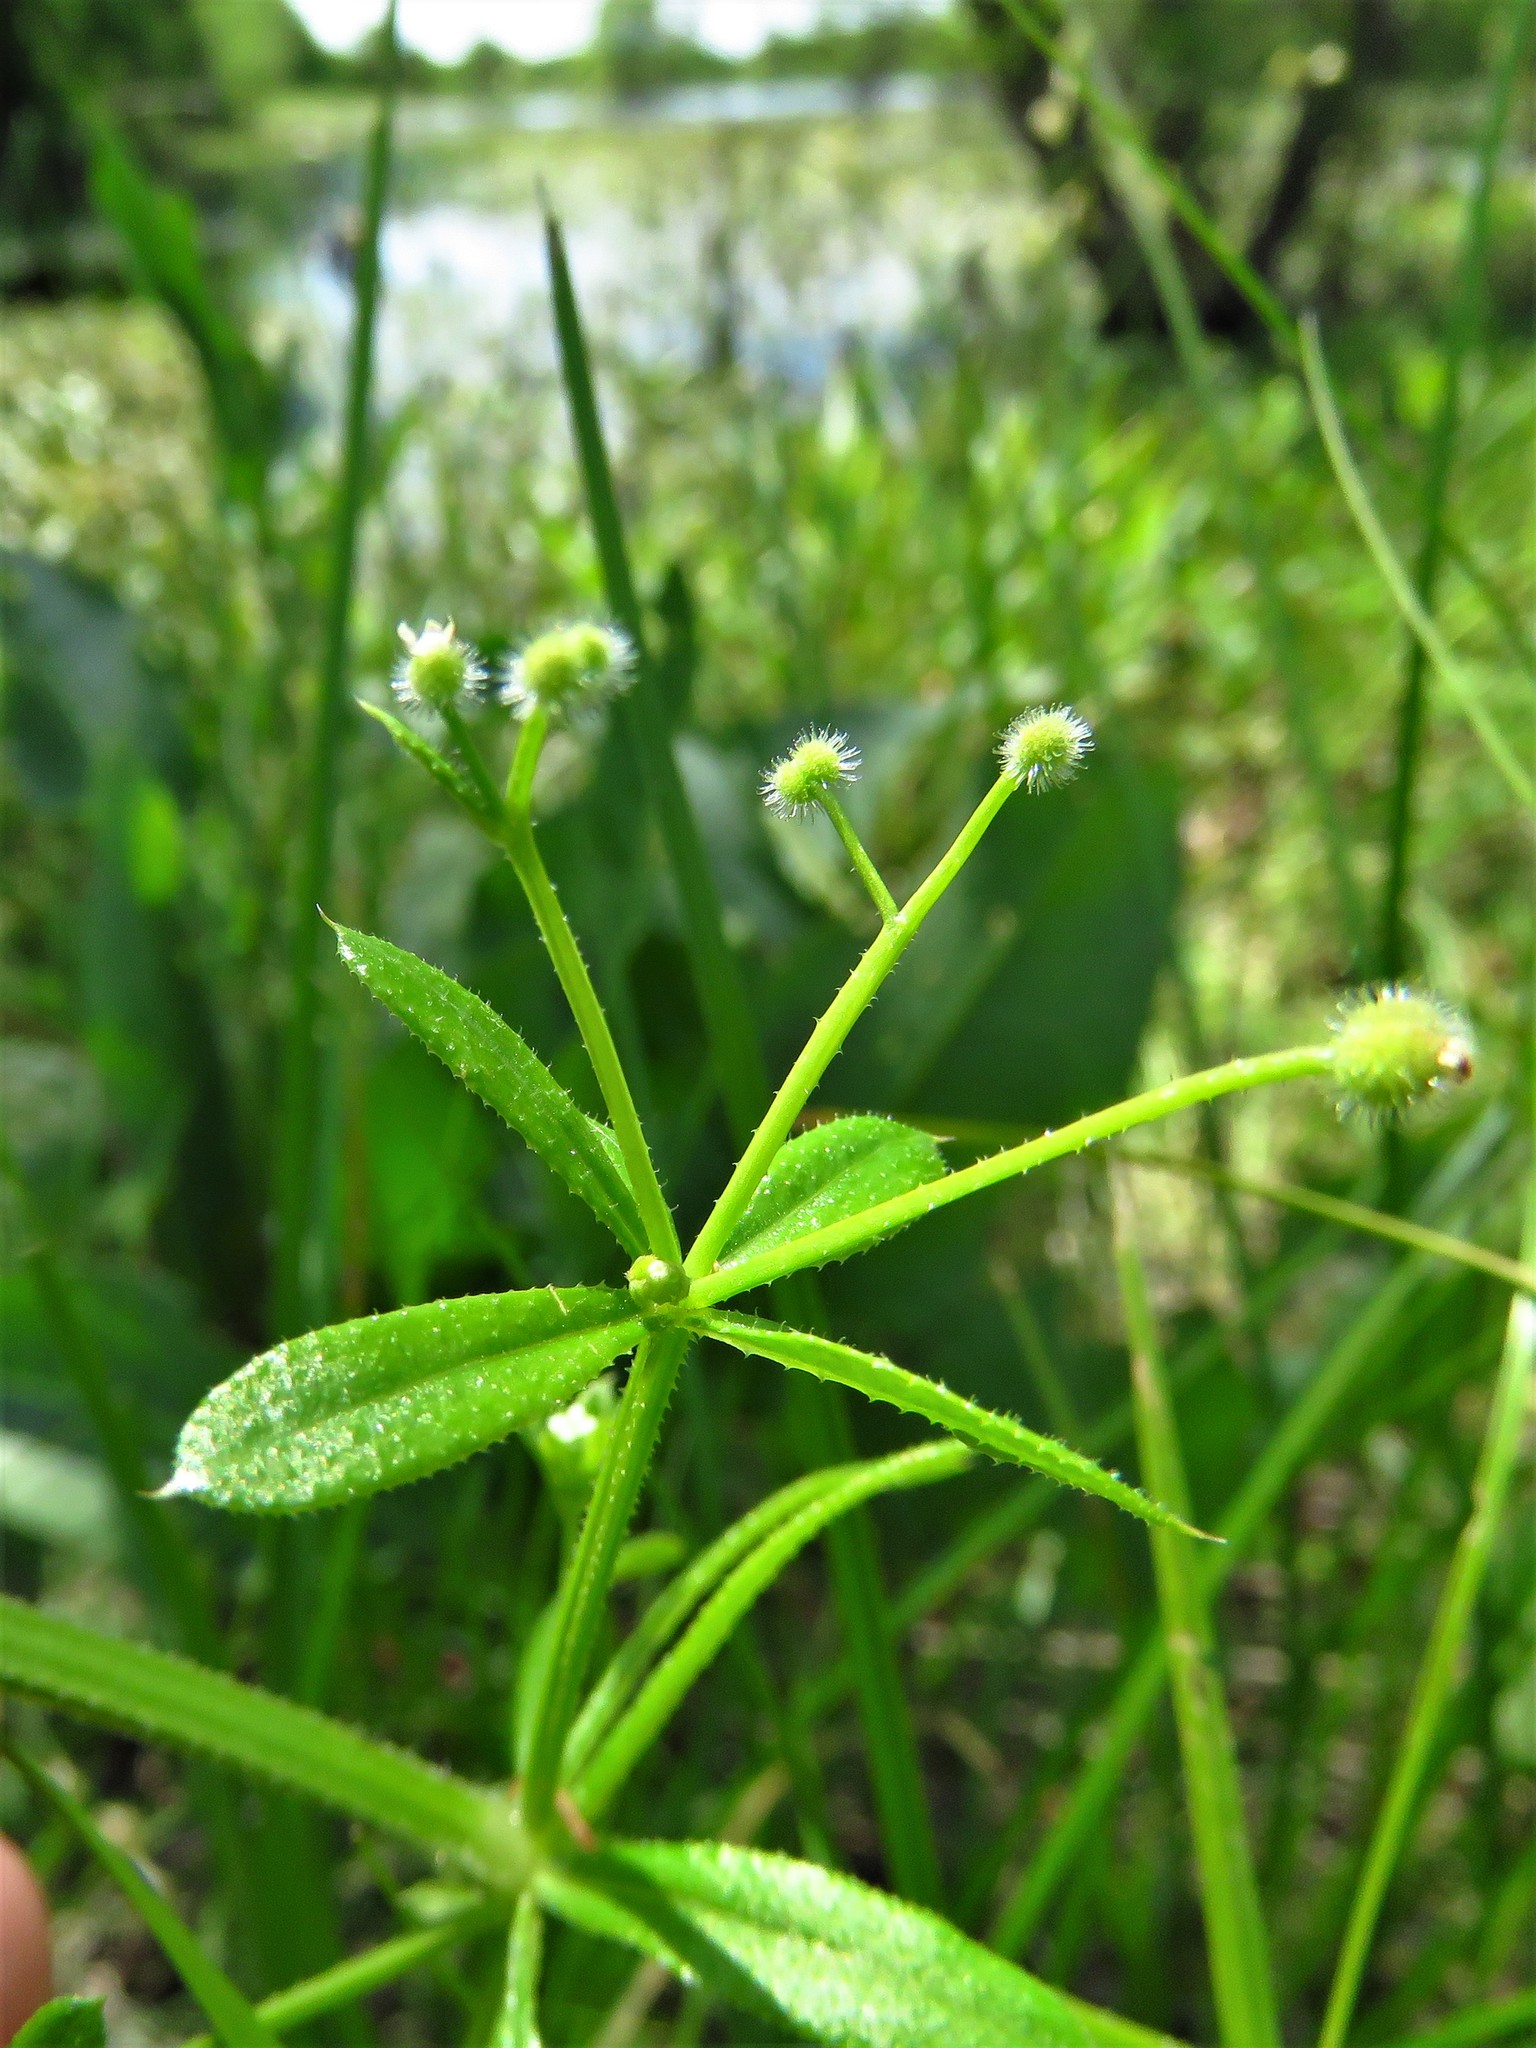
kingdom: Plantae
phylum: Tracheophyta
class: Magnoliopsida
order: Gentianales
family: Rubiaceae
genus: Galium
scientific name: Galium aparine
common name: Cleavers
